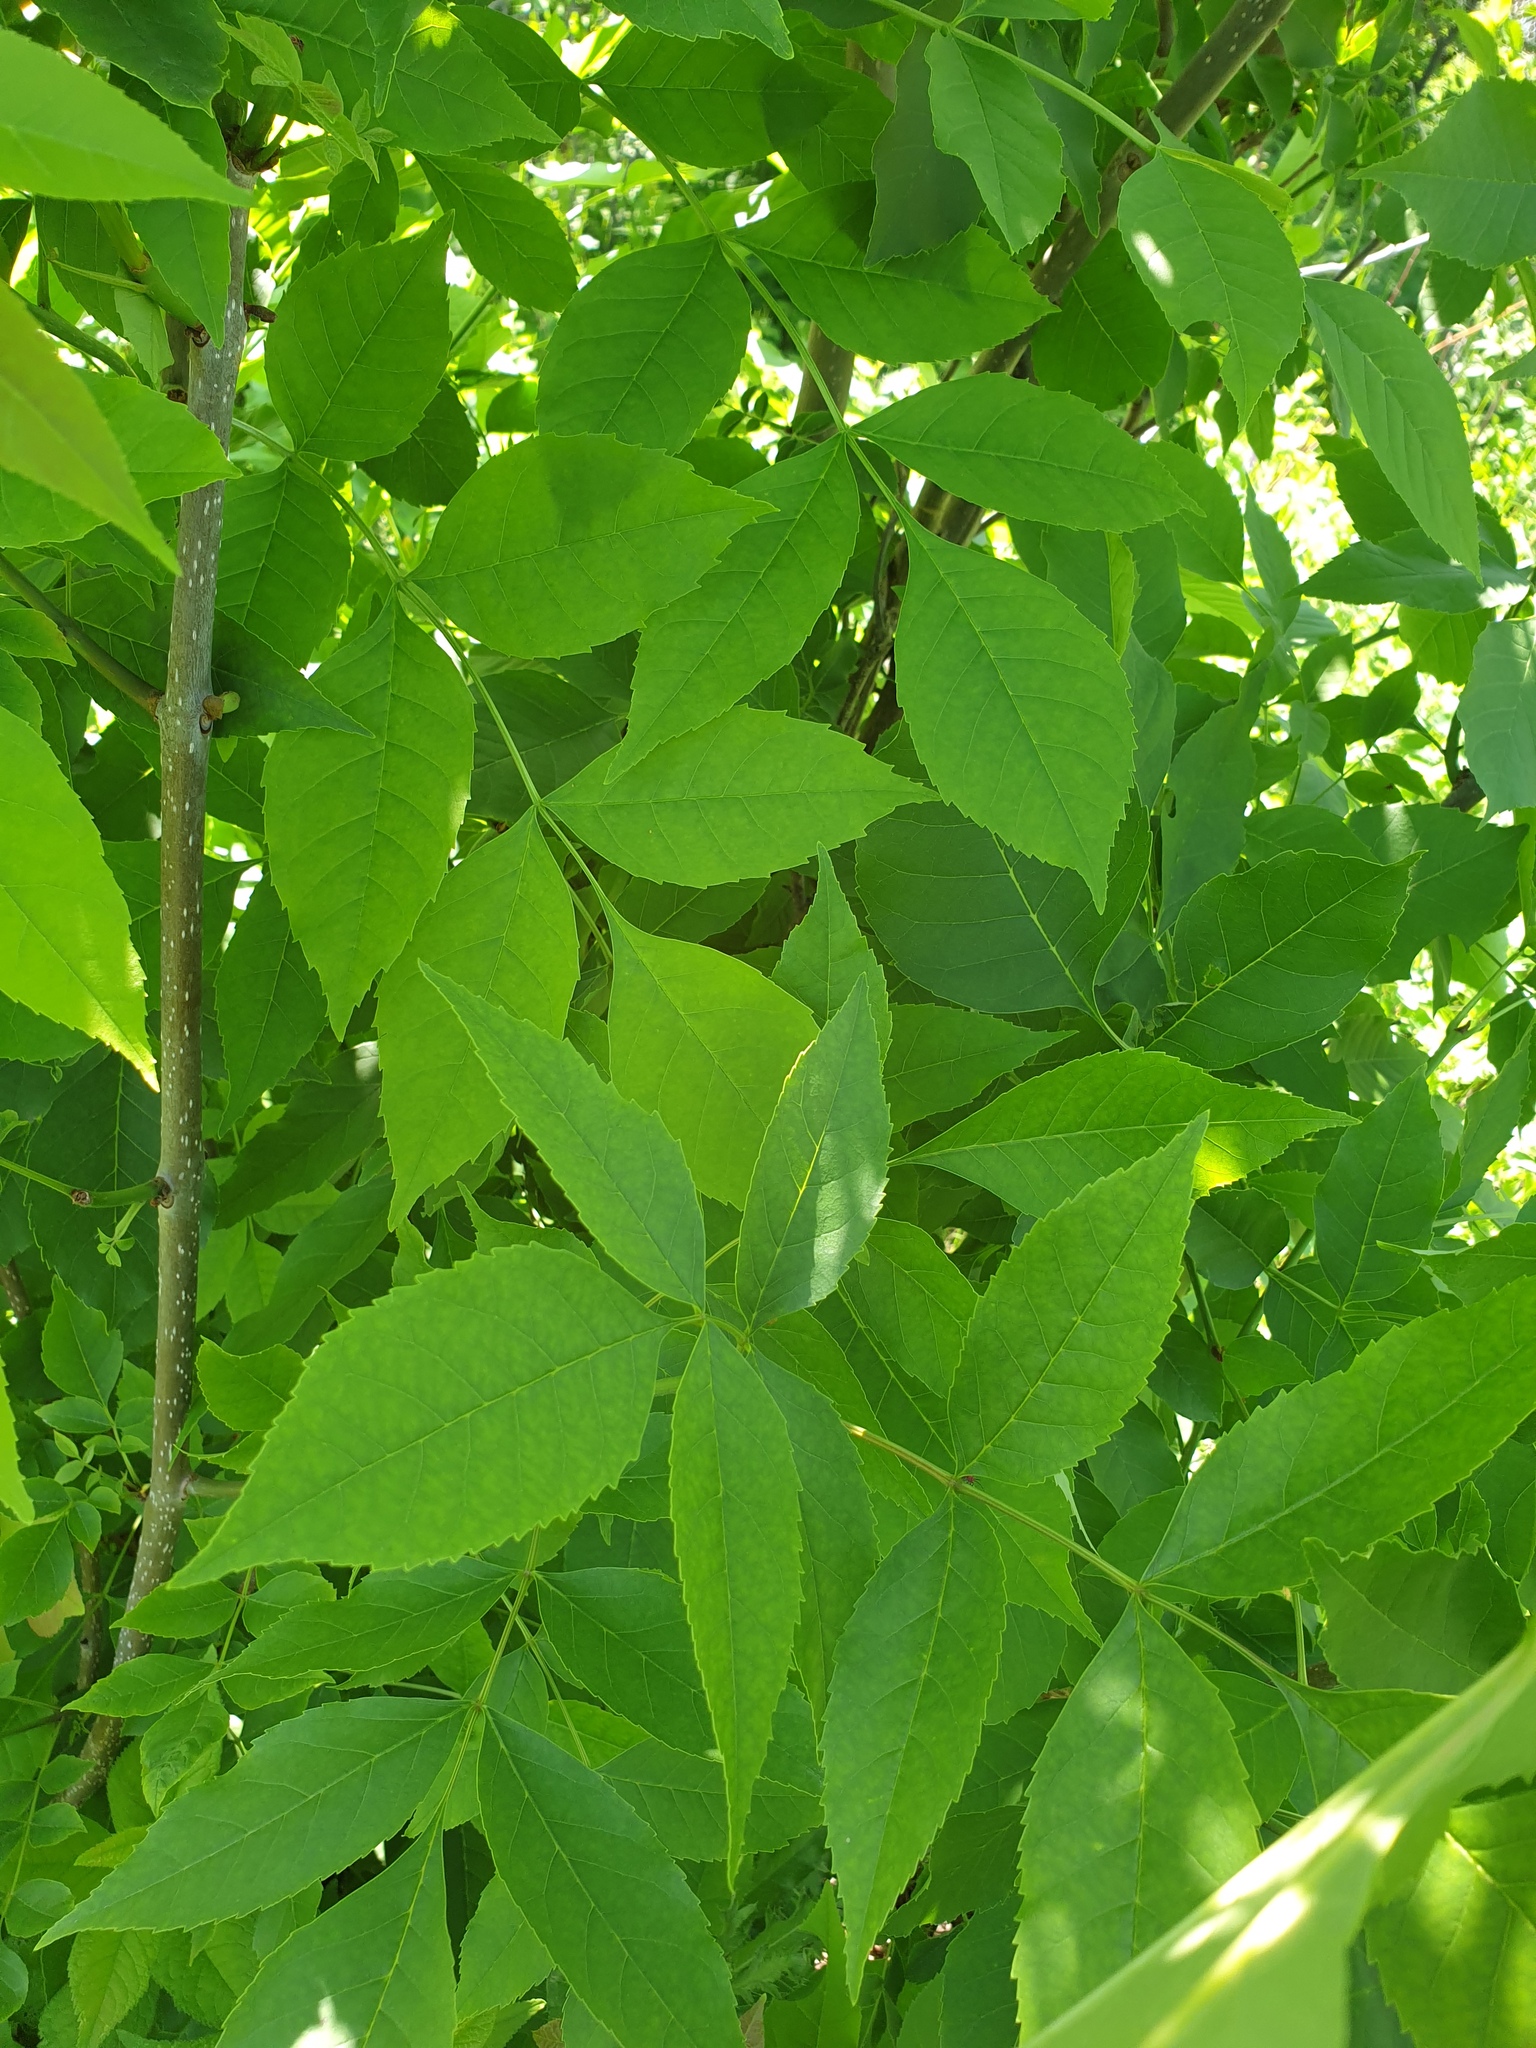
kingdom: Plantae
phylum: Tracheophyta
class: Magnoliopsida
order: Lamiales
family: Oleaceae
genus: Fraxinus
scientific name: Fraxinus pennsylvanica
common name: Green ash
